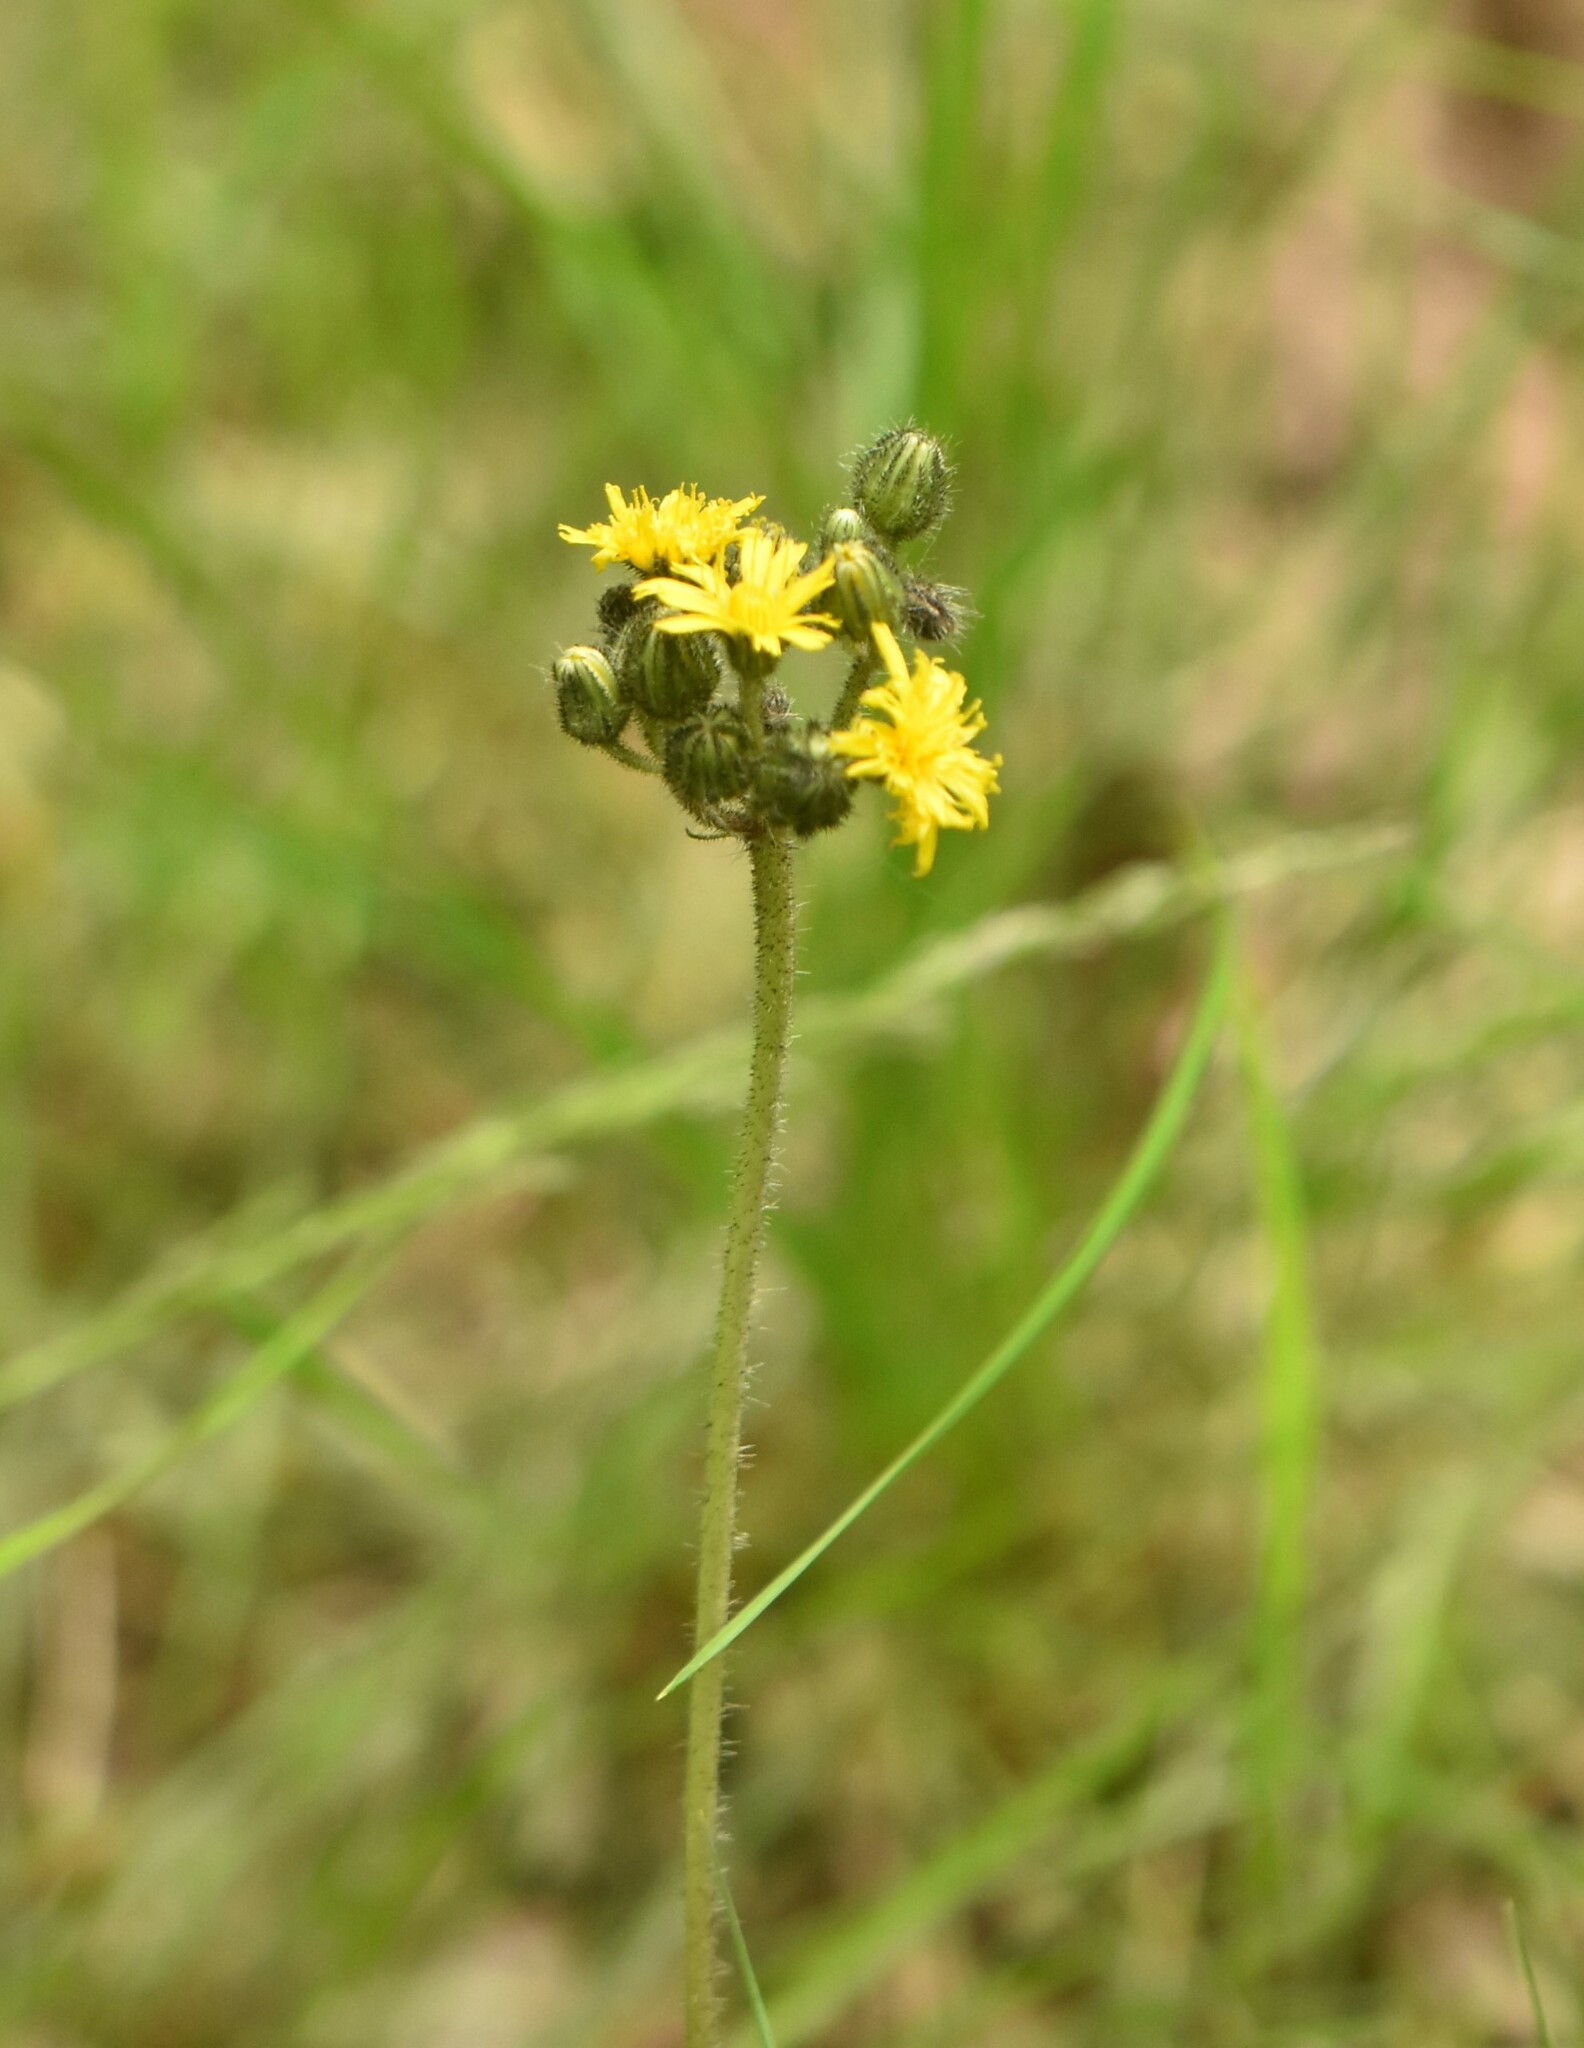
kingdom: Plantae
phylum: Tracheophyta
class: Magnoliopsida
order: Asterales
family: Asteraceae
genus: Pilosella
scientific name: Pilosella onegensis
